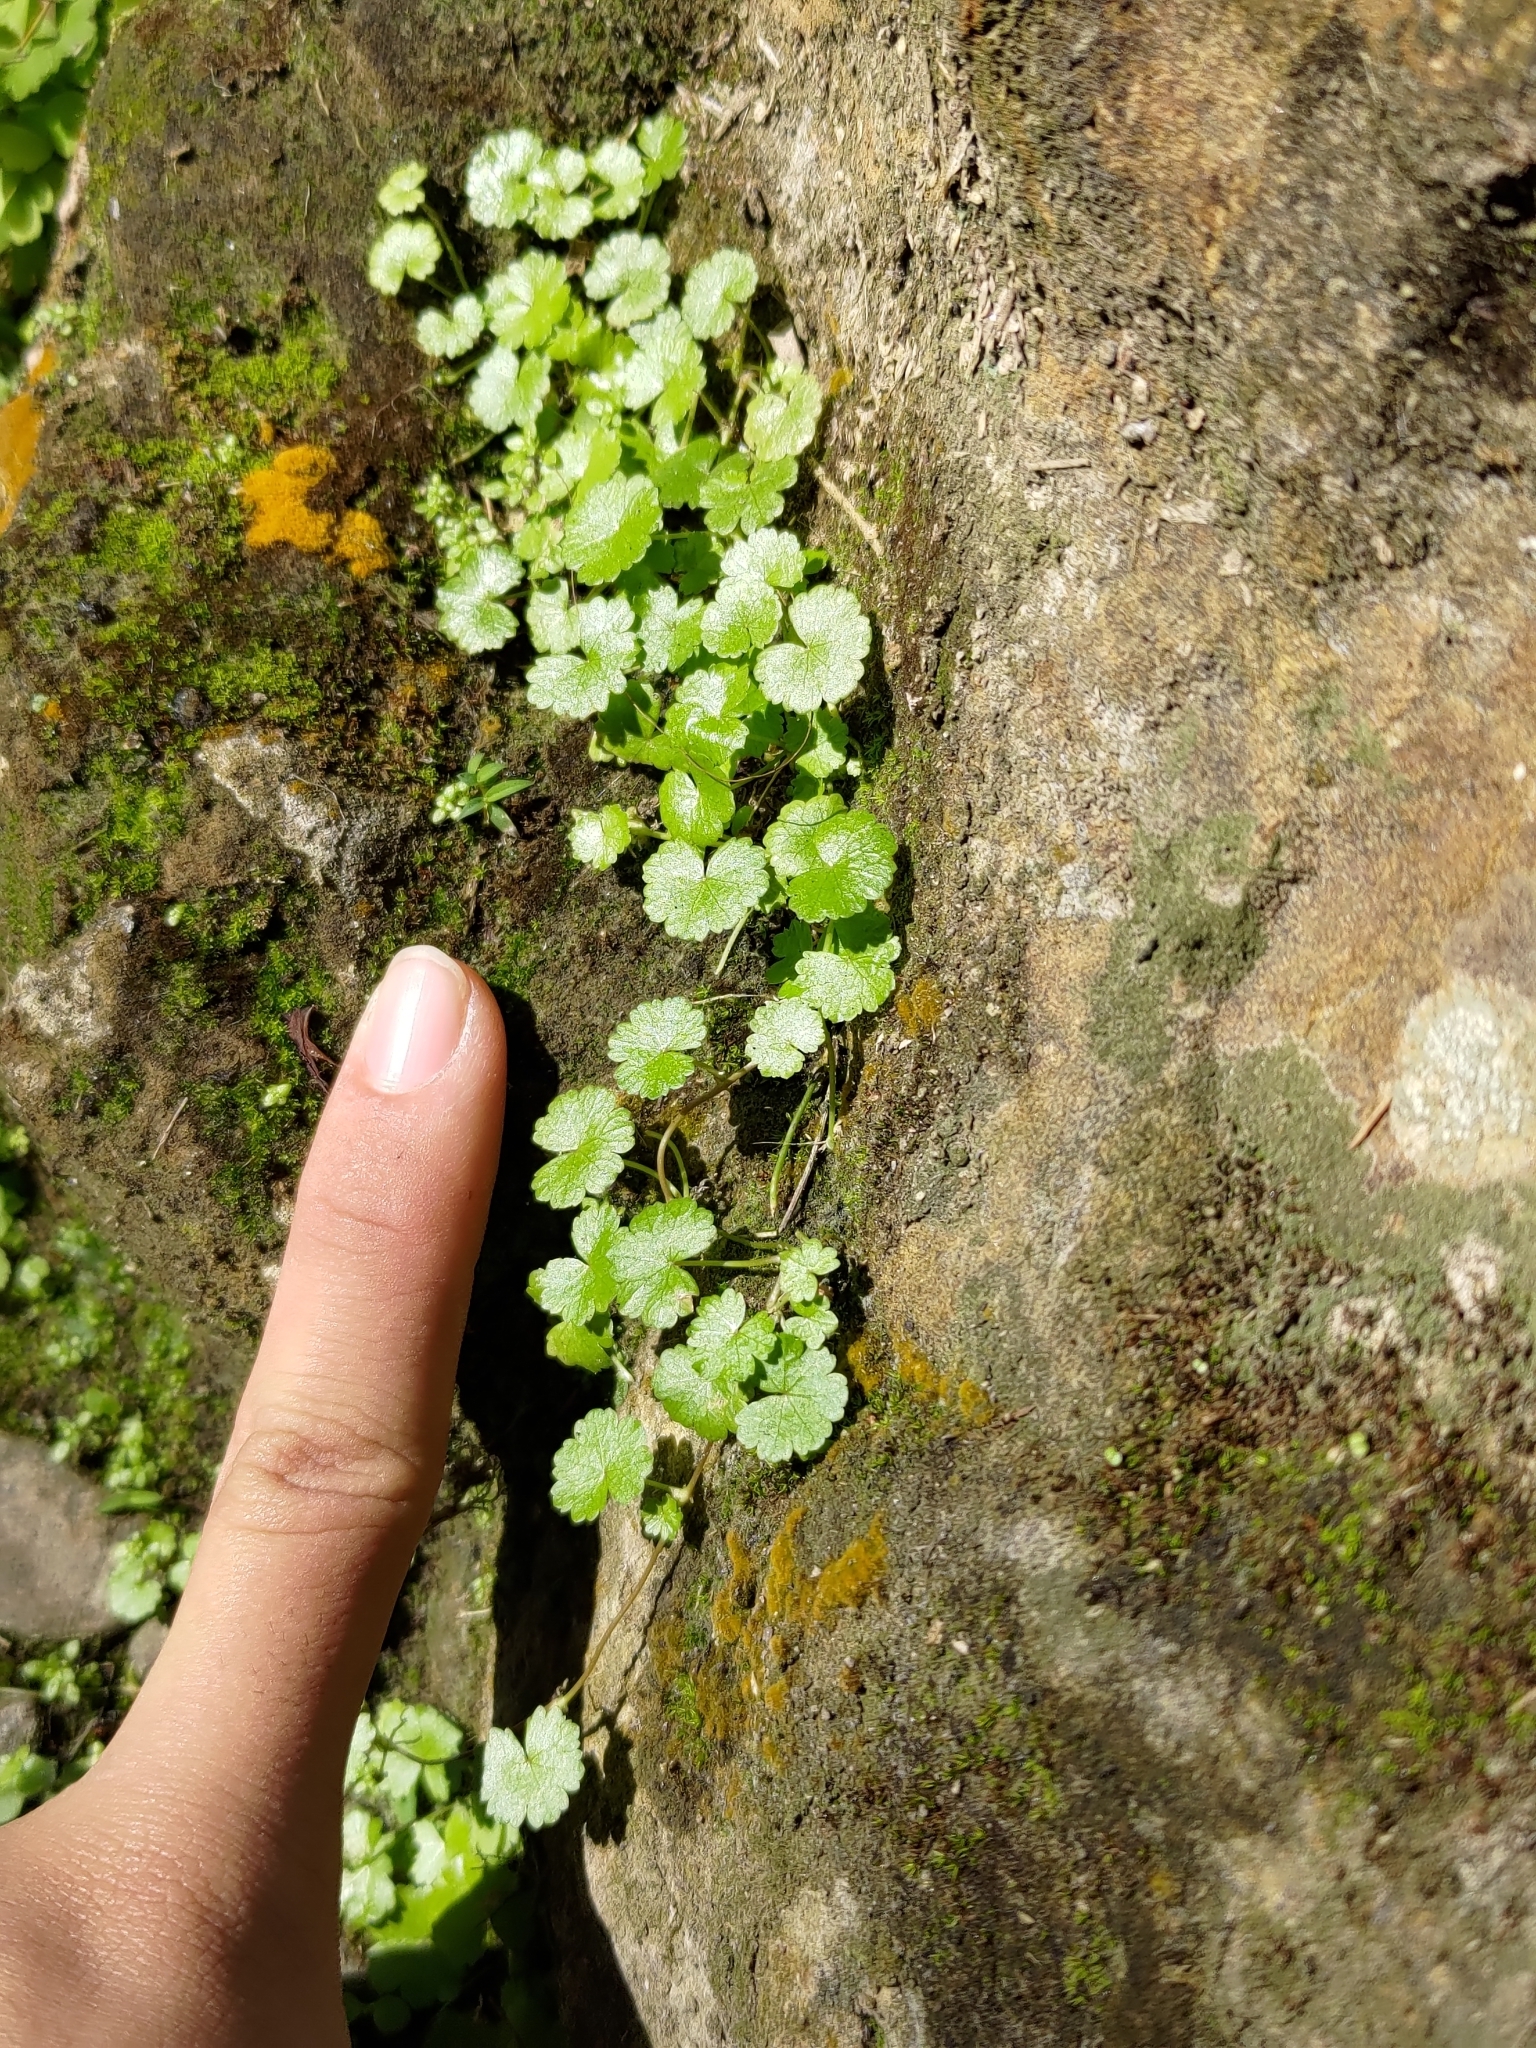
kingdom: Plantae
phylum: Tracheophyta
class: Magnoliopsida
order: Apiales
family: Araliaceae
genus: Hydrocotyle
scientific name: Hydrocotyle sibthorpioides
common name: Lawn marshpennywort
